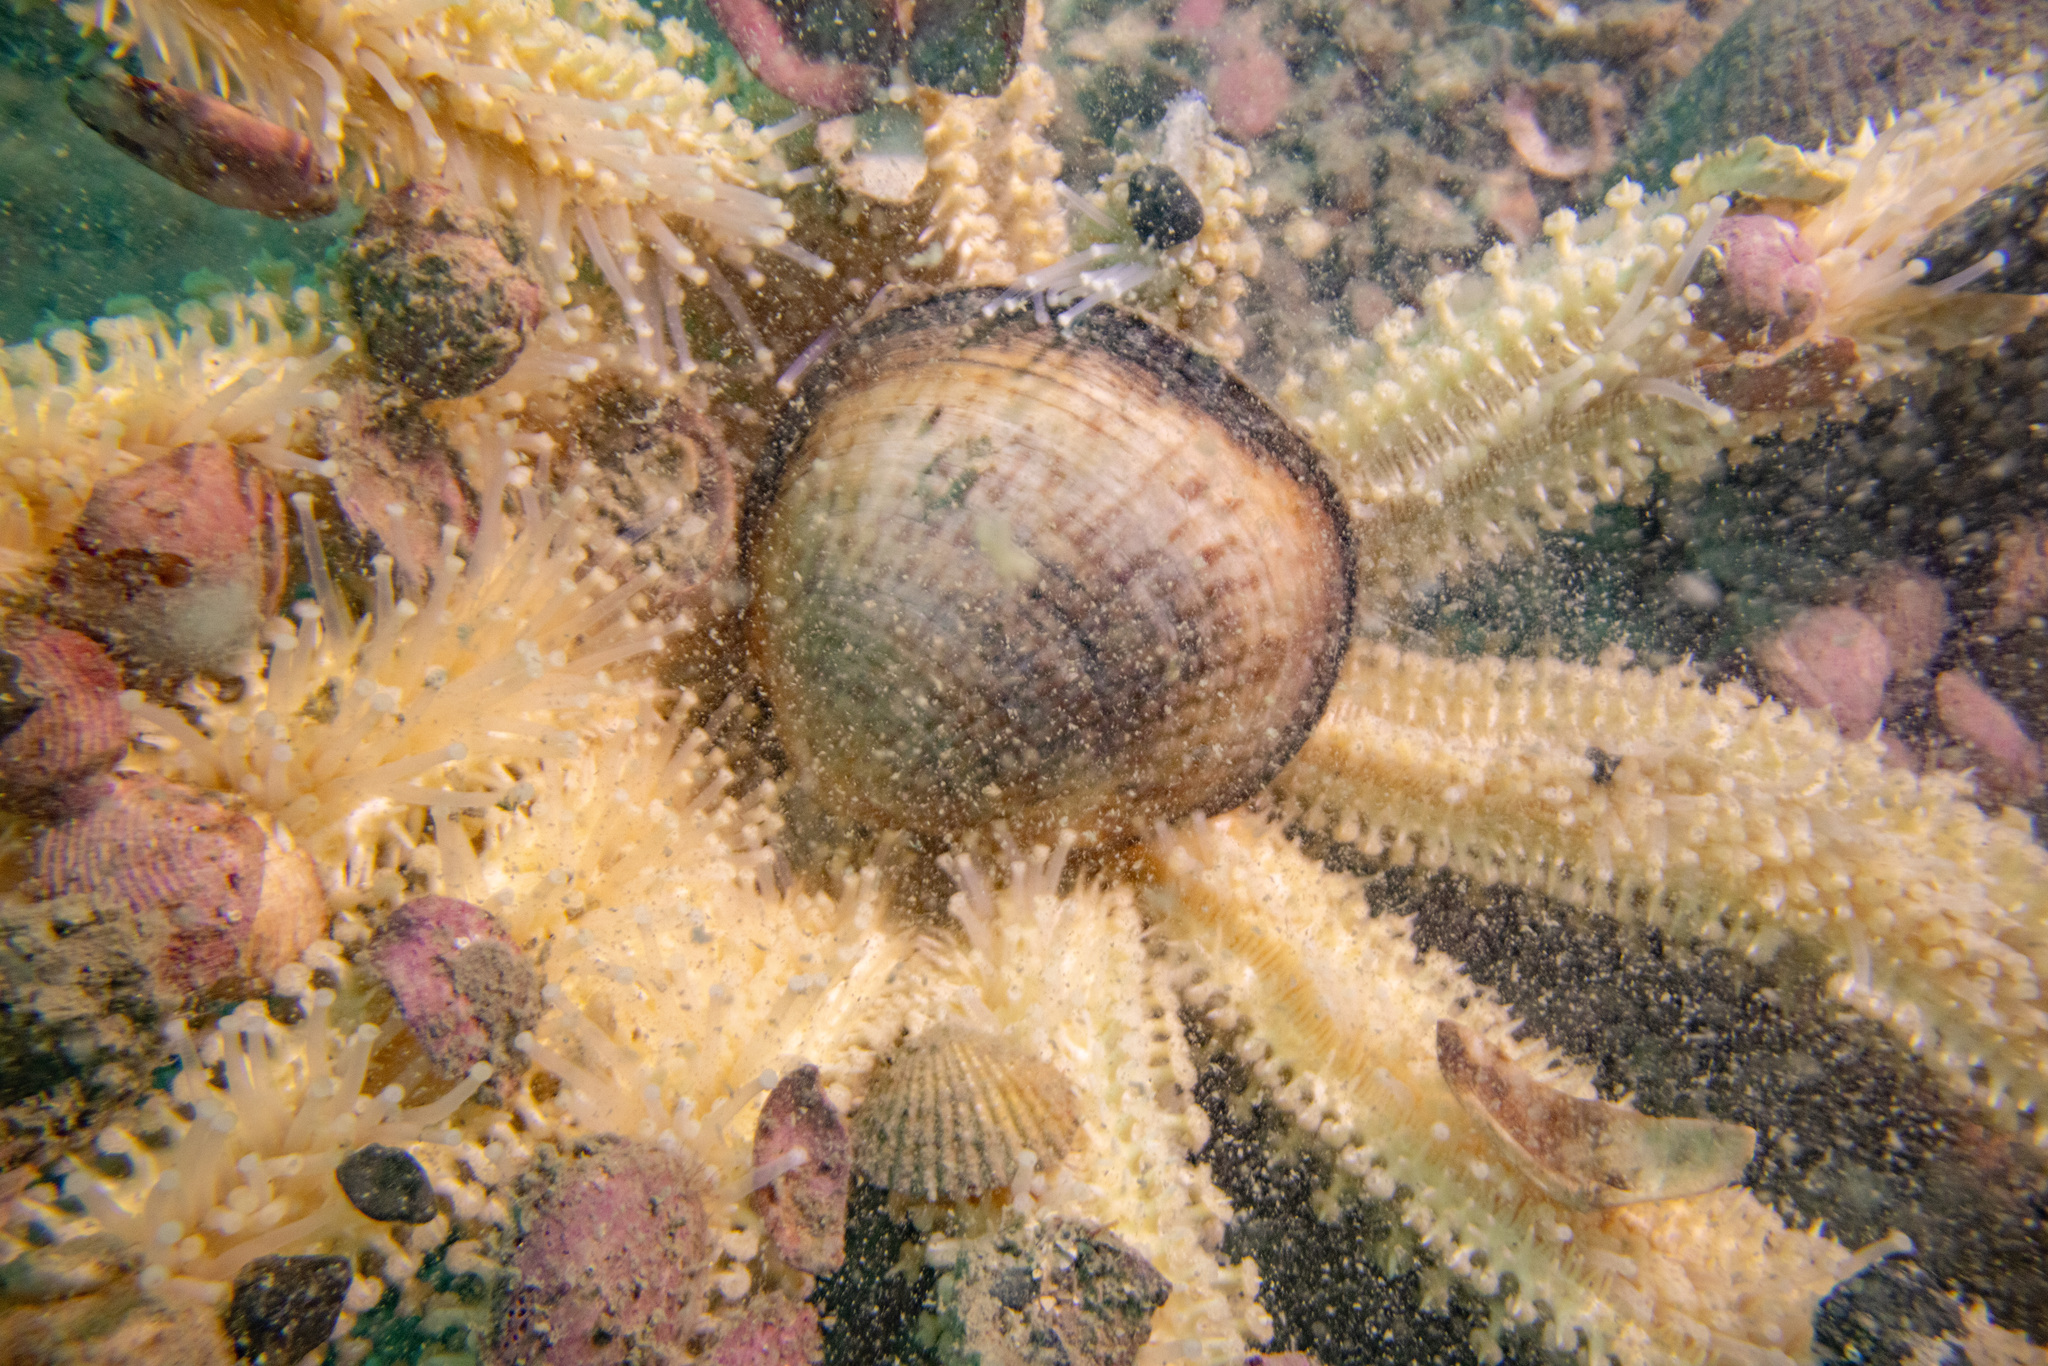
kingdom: Animalia
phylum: Mollusca
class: Bivalvia
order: Arcida
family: Glycymerididae
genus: Tucetona
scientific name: Tucetona laticostata
